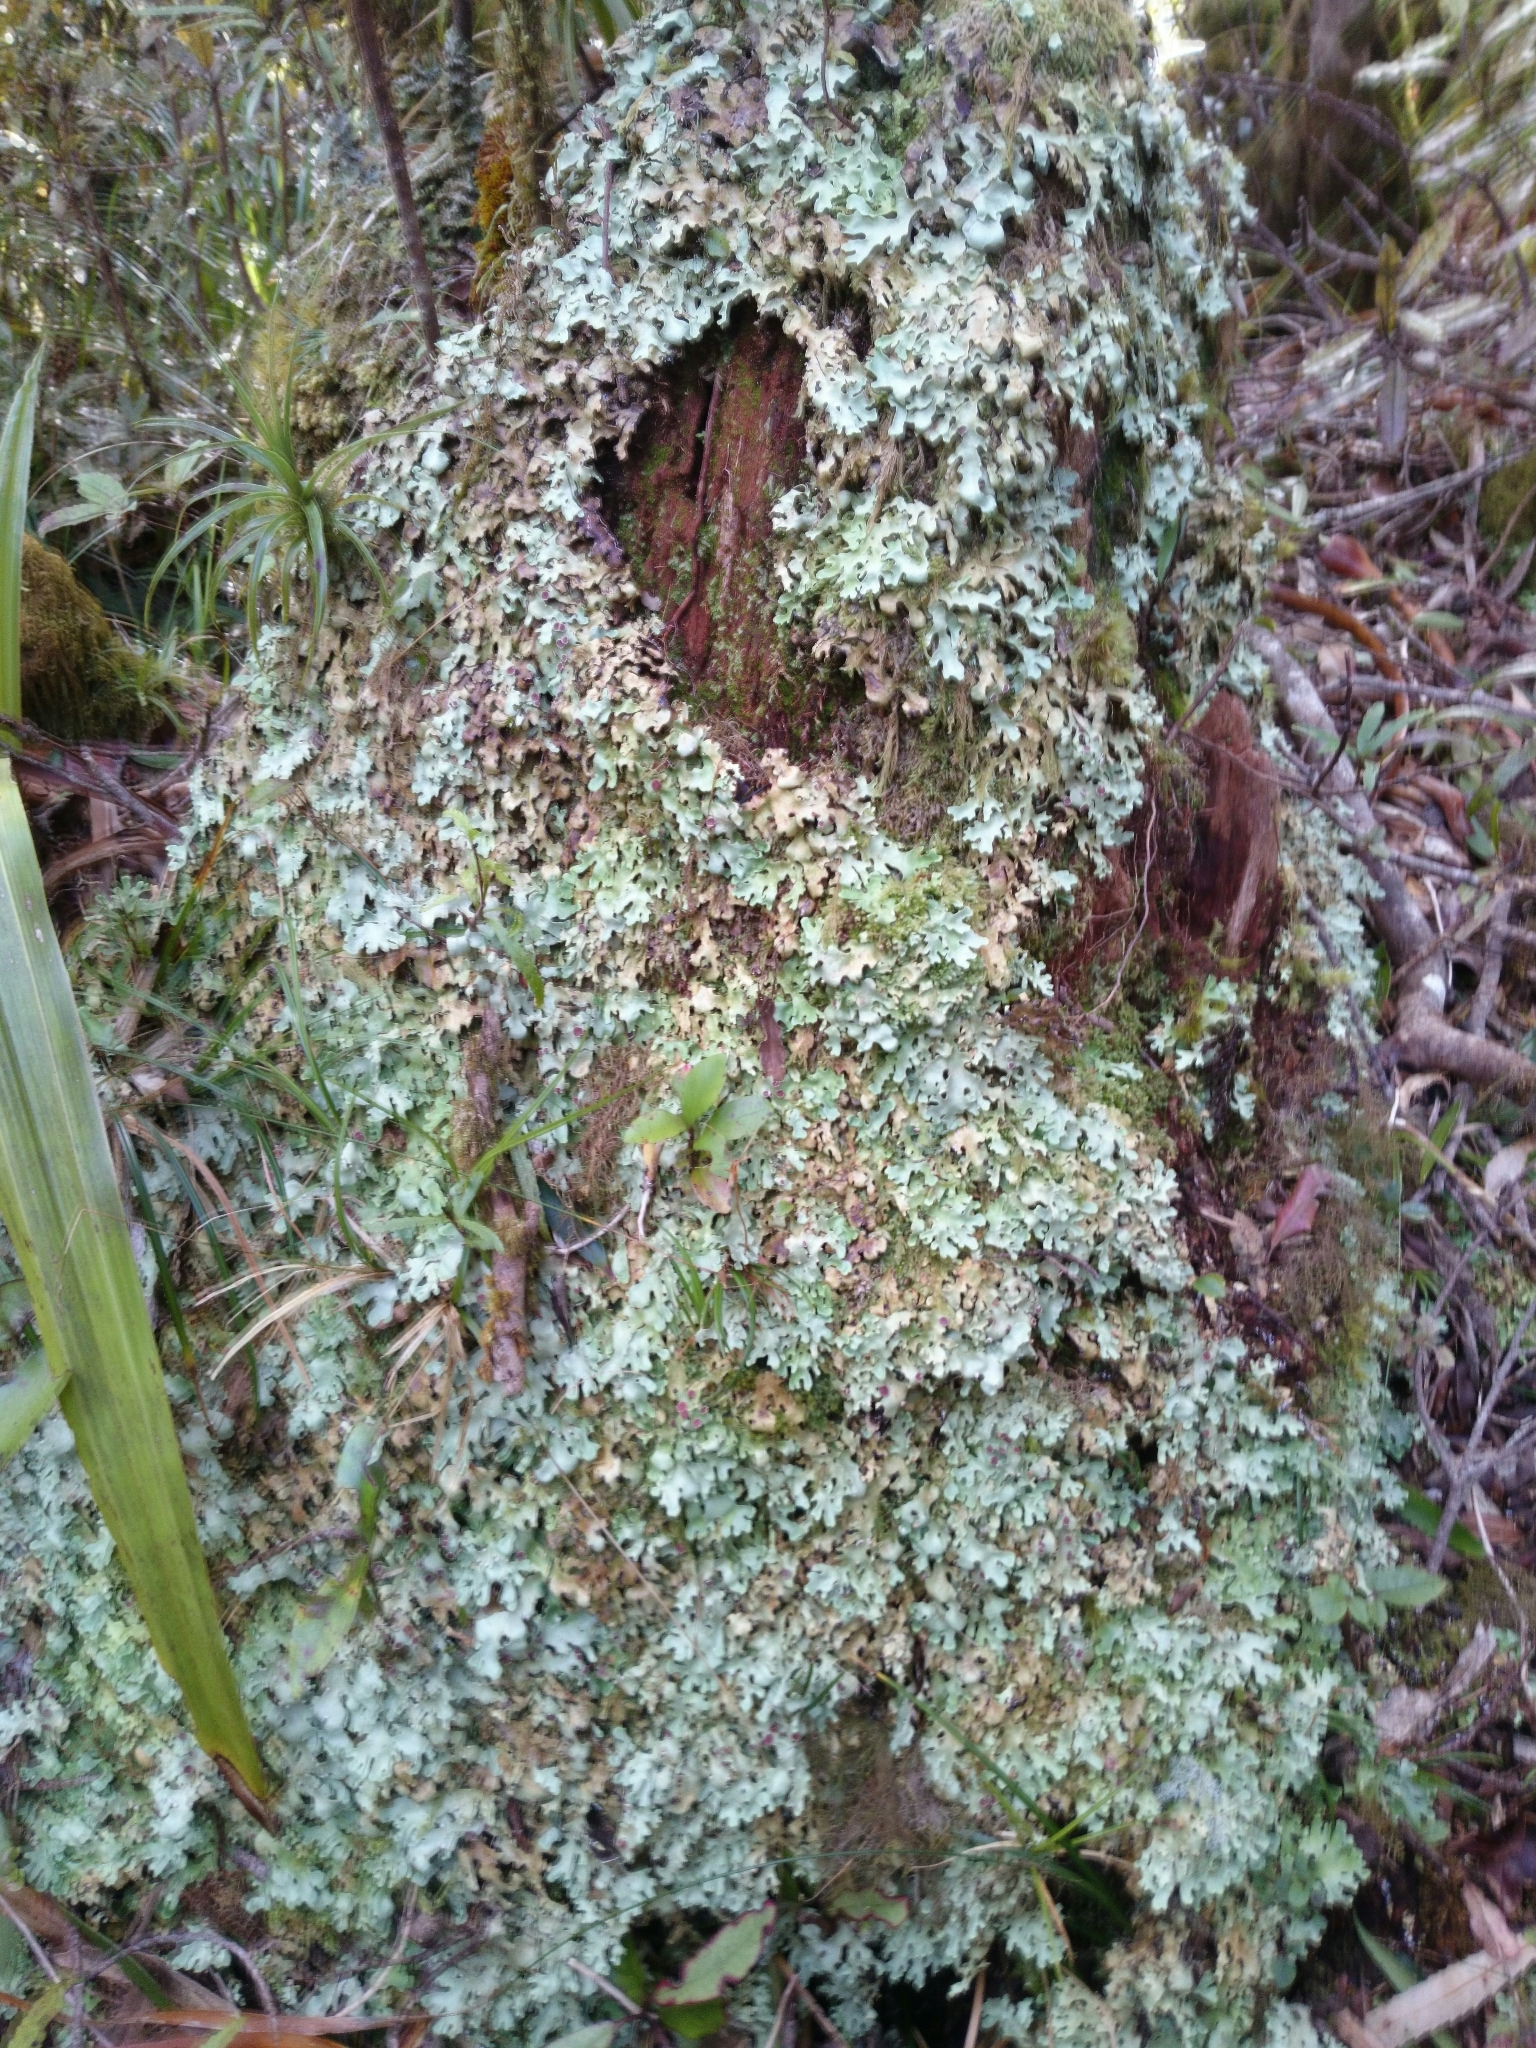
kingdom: Fungi
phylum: Ascomycota
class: Lecanoromycetes
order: Peltigerales
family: Lobariaceae
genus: Pseudocyphellaria
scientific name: Pseudocyphellaria homeophylla
